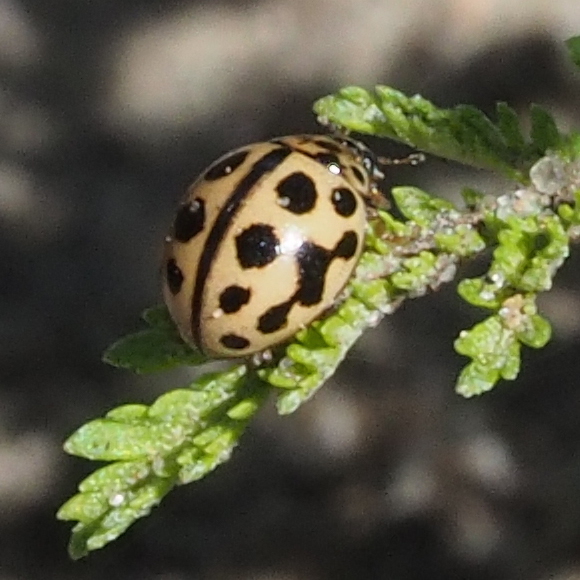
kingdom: Animalia
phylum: Arthropoda
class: Insecta
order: Coleoptera
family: Coccinellidae
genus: Tytthaspis
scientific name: Tytthaspis sedecimpunctata
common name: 16-spot ladybird
